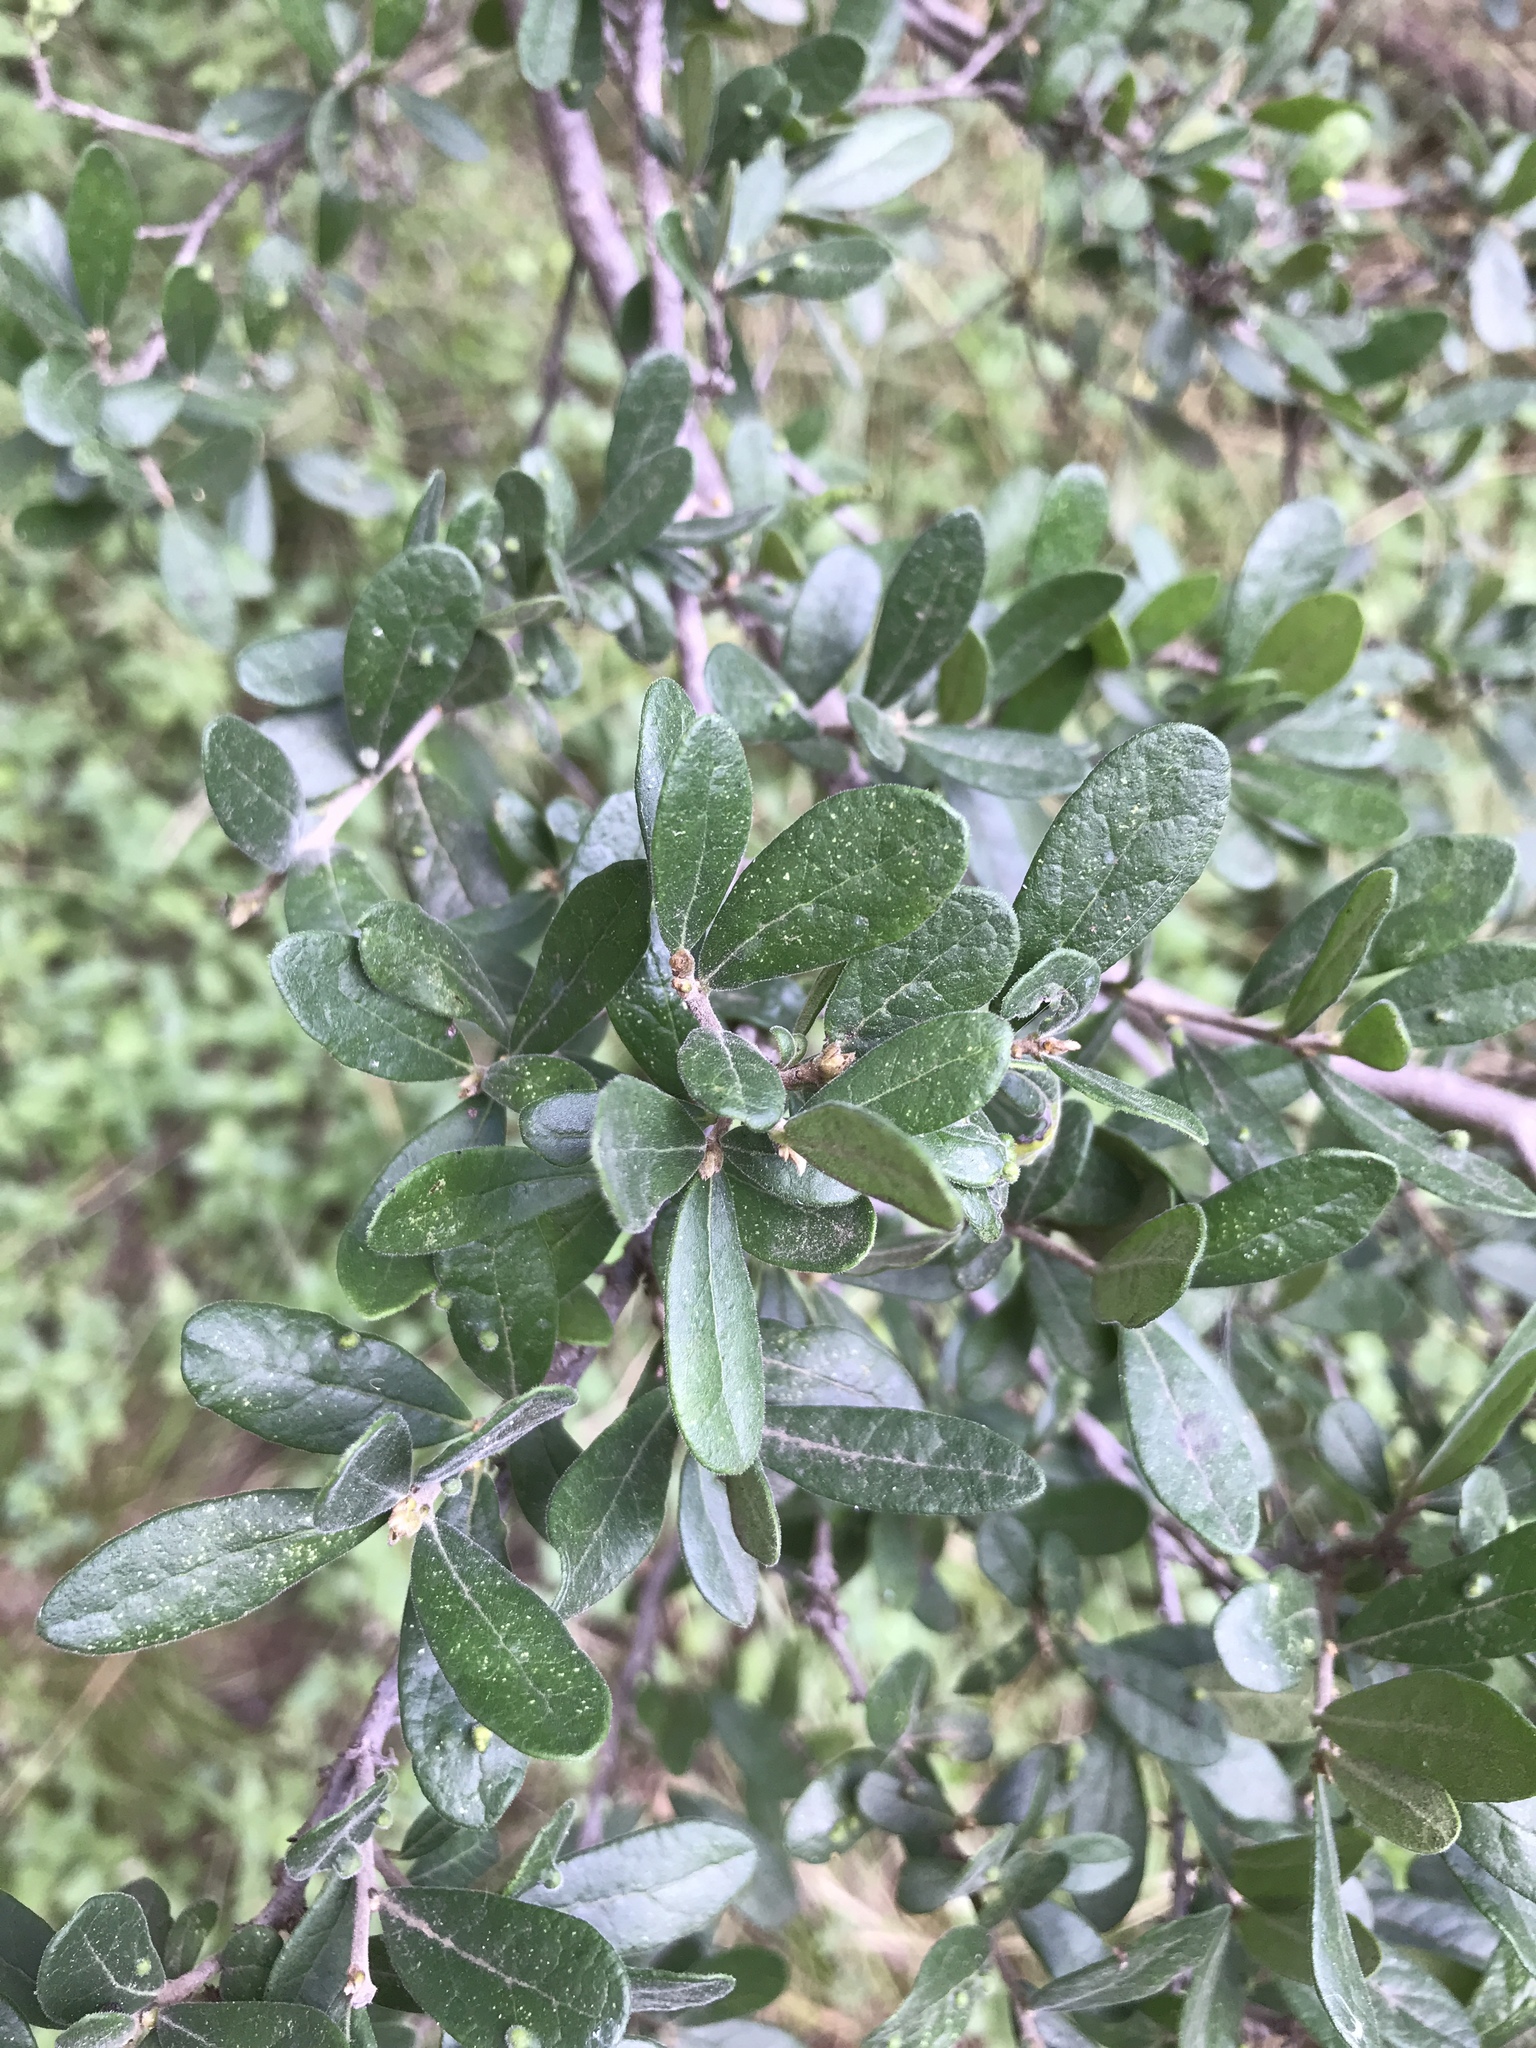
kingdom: Plantae
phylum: Tracheophyta
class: Magnoliopsida
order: Ericales
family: Ebenaceae
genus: Diospyros
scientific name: Diospyros texana
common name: Texas persimmon
